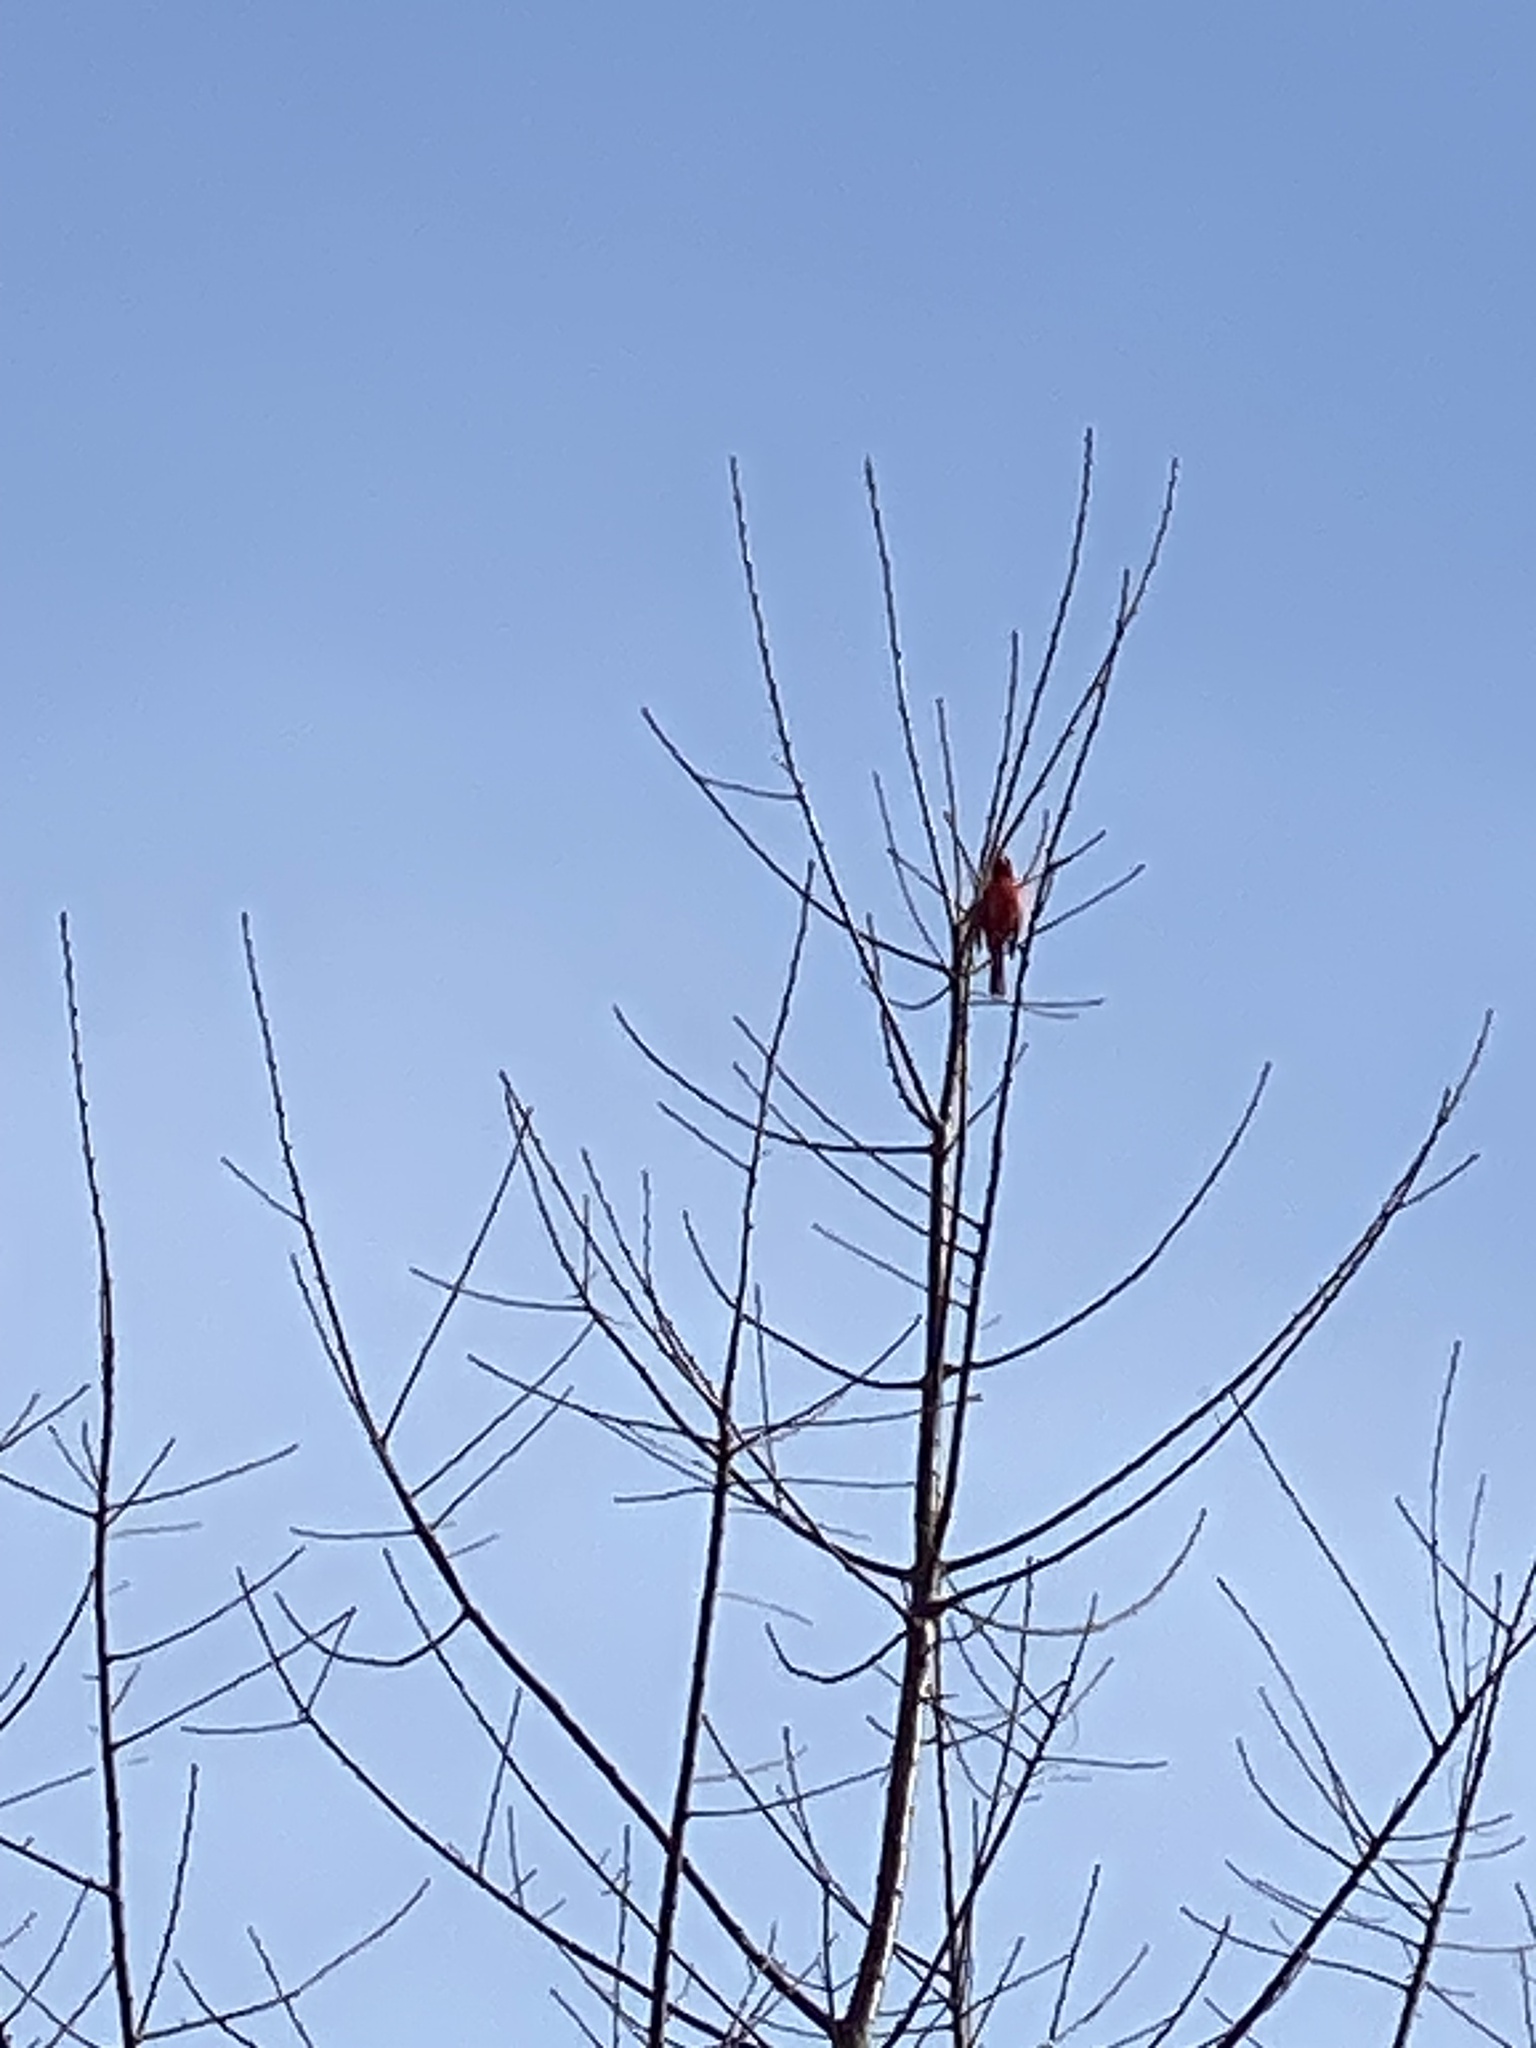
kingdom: Animalia
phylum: Chordata
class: Aves
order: Passeriformes
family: Cardinalidae
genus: Cardinalis
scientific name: Cardinalis cardinalis
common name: Northern cardinal
